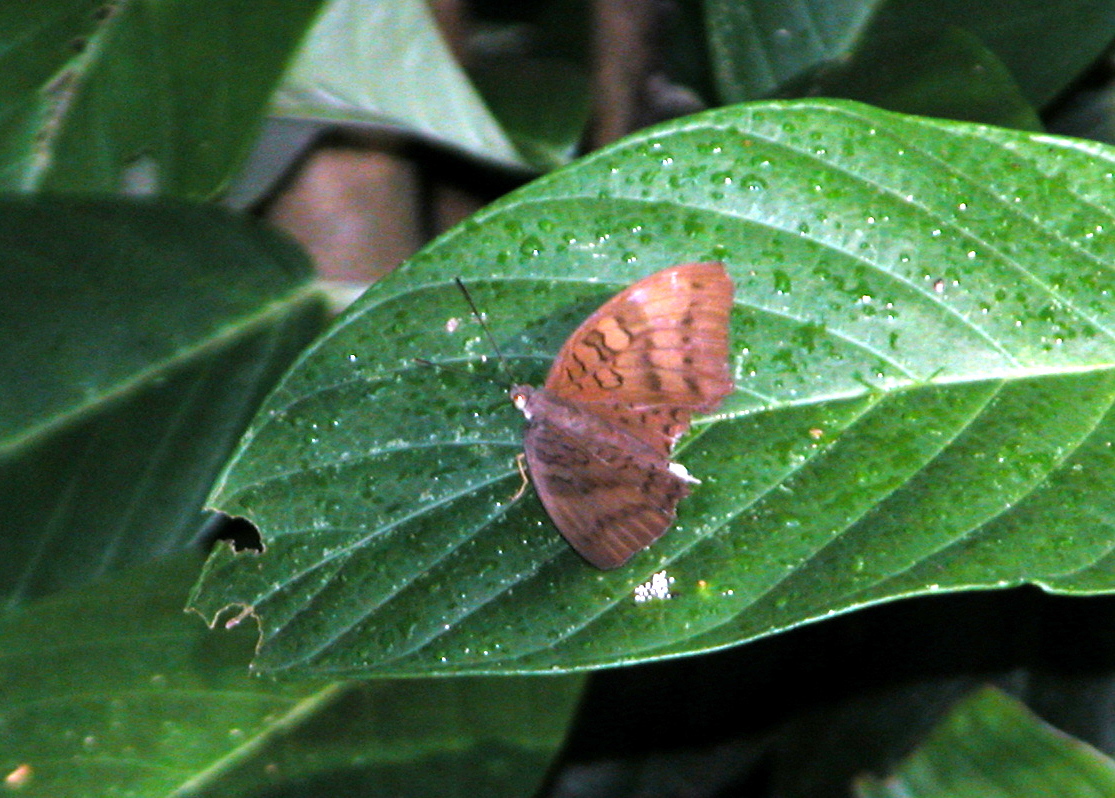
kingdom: Animalia
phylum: Arthropoda
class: Insecta
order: Lepidoptera
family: Nymphalidae
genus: Tanaecia
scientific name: Tanaecia julii
